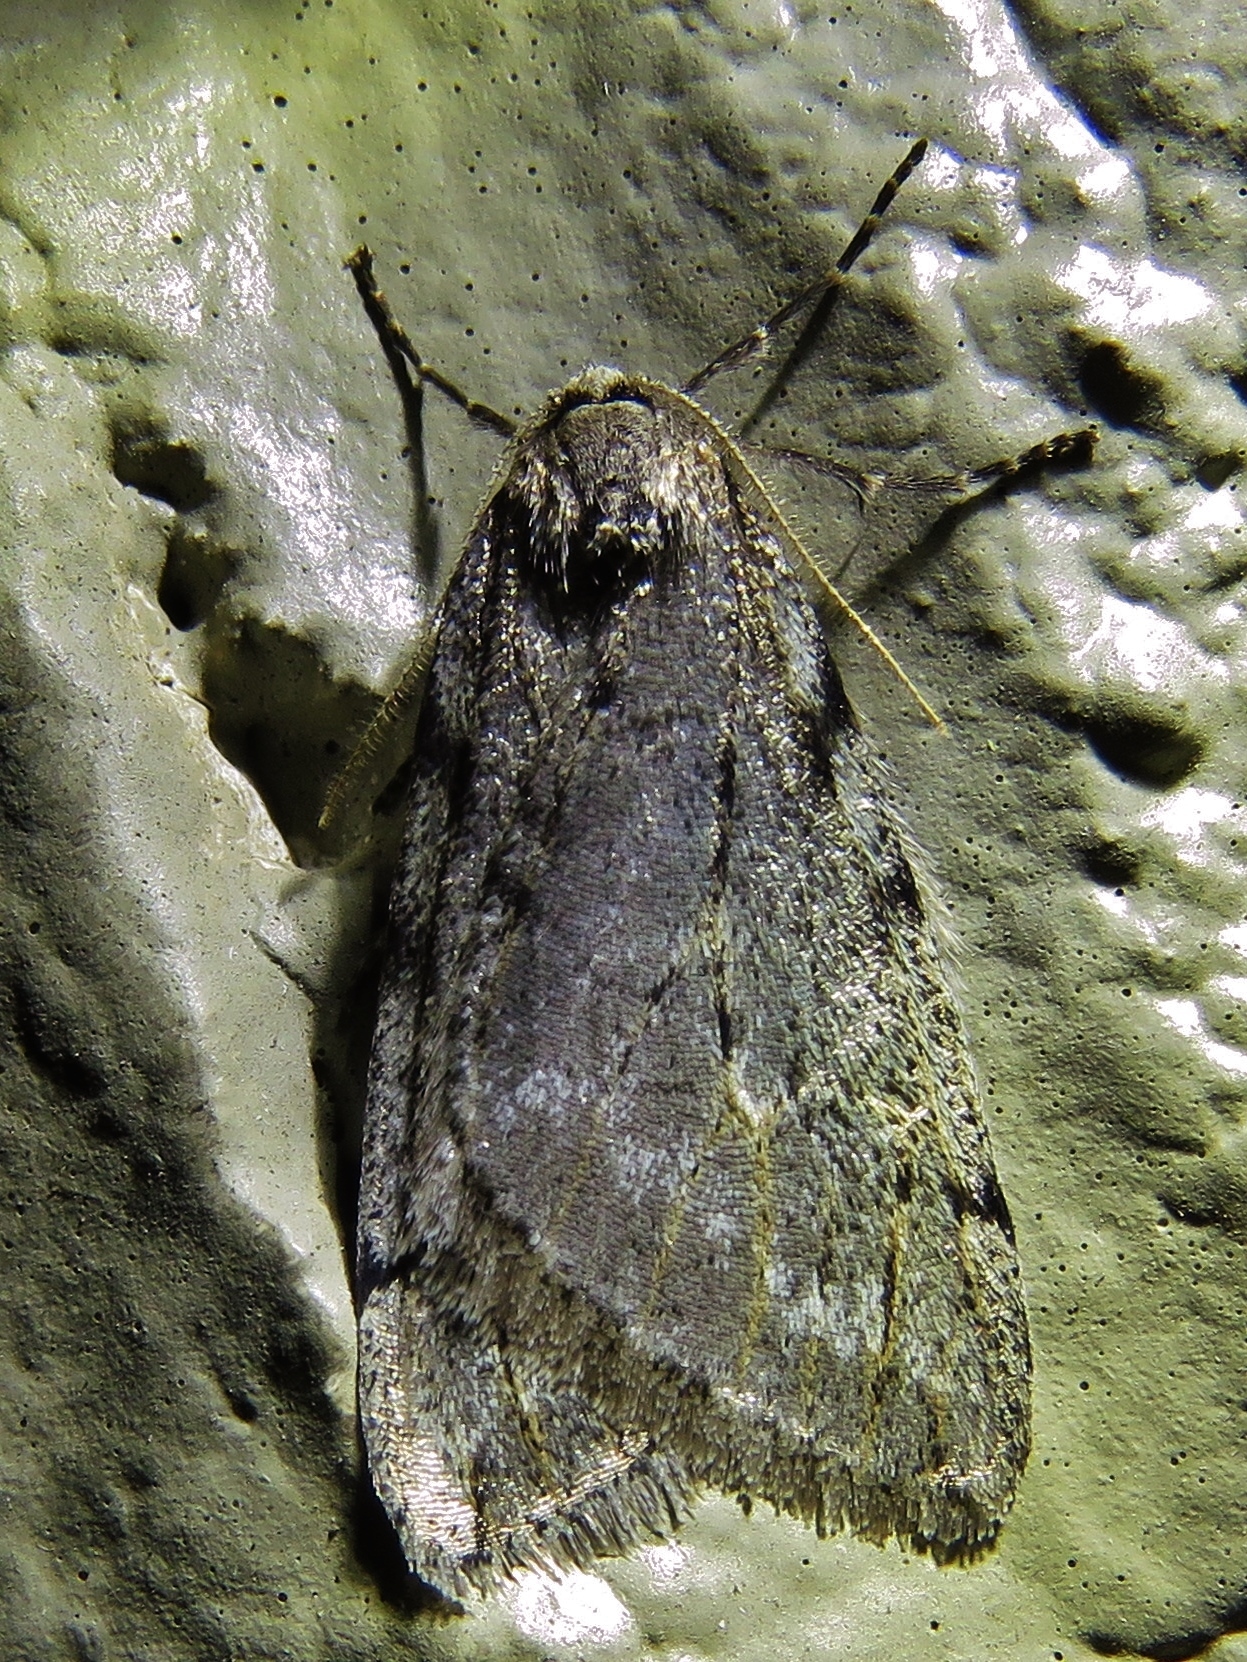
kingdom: Animalia
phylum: Arthropoda
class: Insecta
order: Lepidoptera
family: Geometridae
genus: Paleacrita
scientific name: Paleacrita vernata
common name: Spring cankerworm
